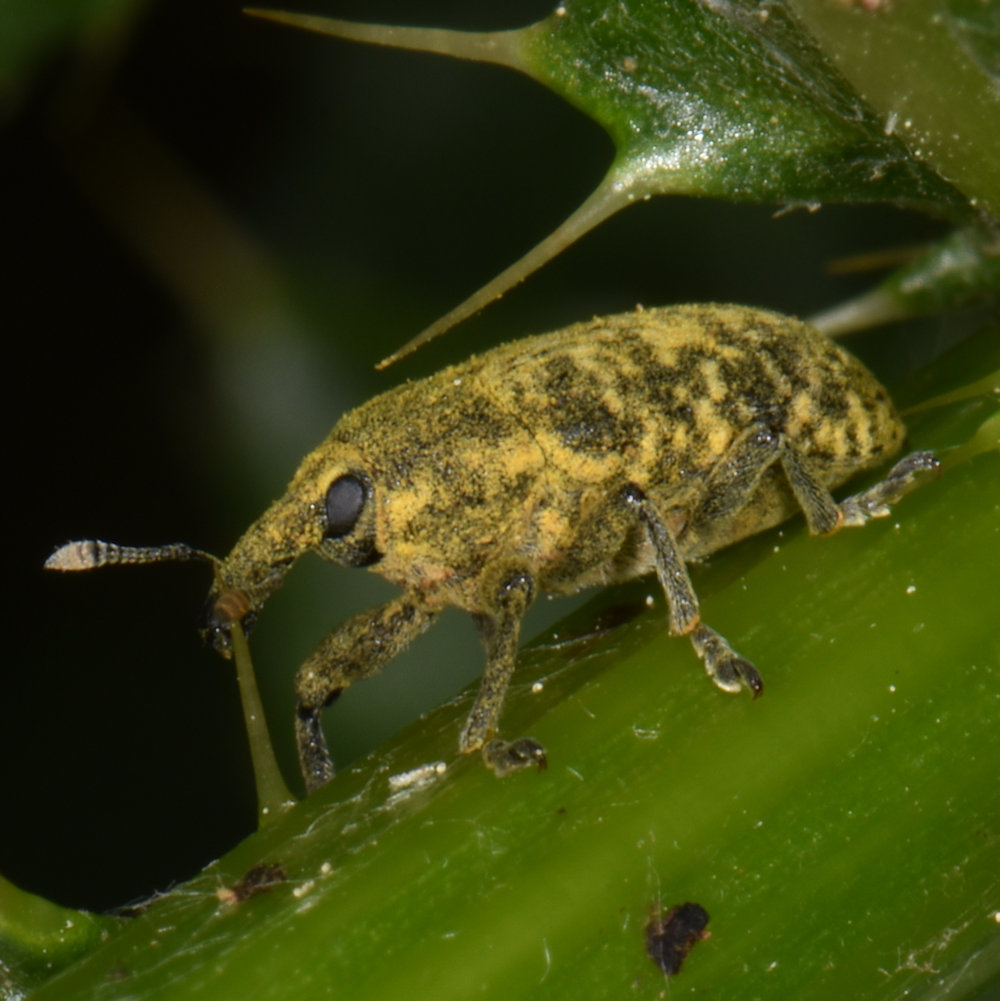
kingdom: Animalia
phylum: Arthropoda
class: Insecta
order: Coleoptera
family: Curculionidae
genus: Larinus
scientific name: Larinus carlinae
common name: Weevil
